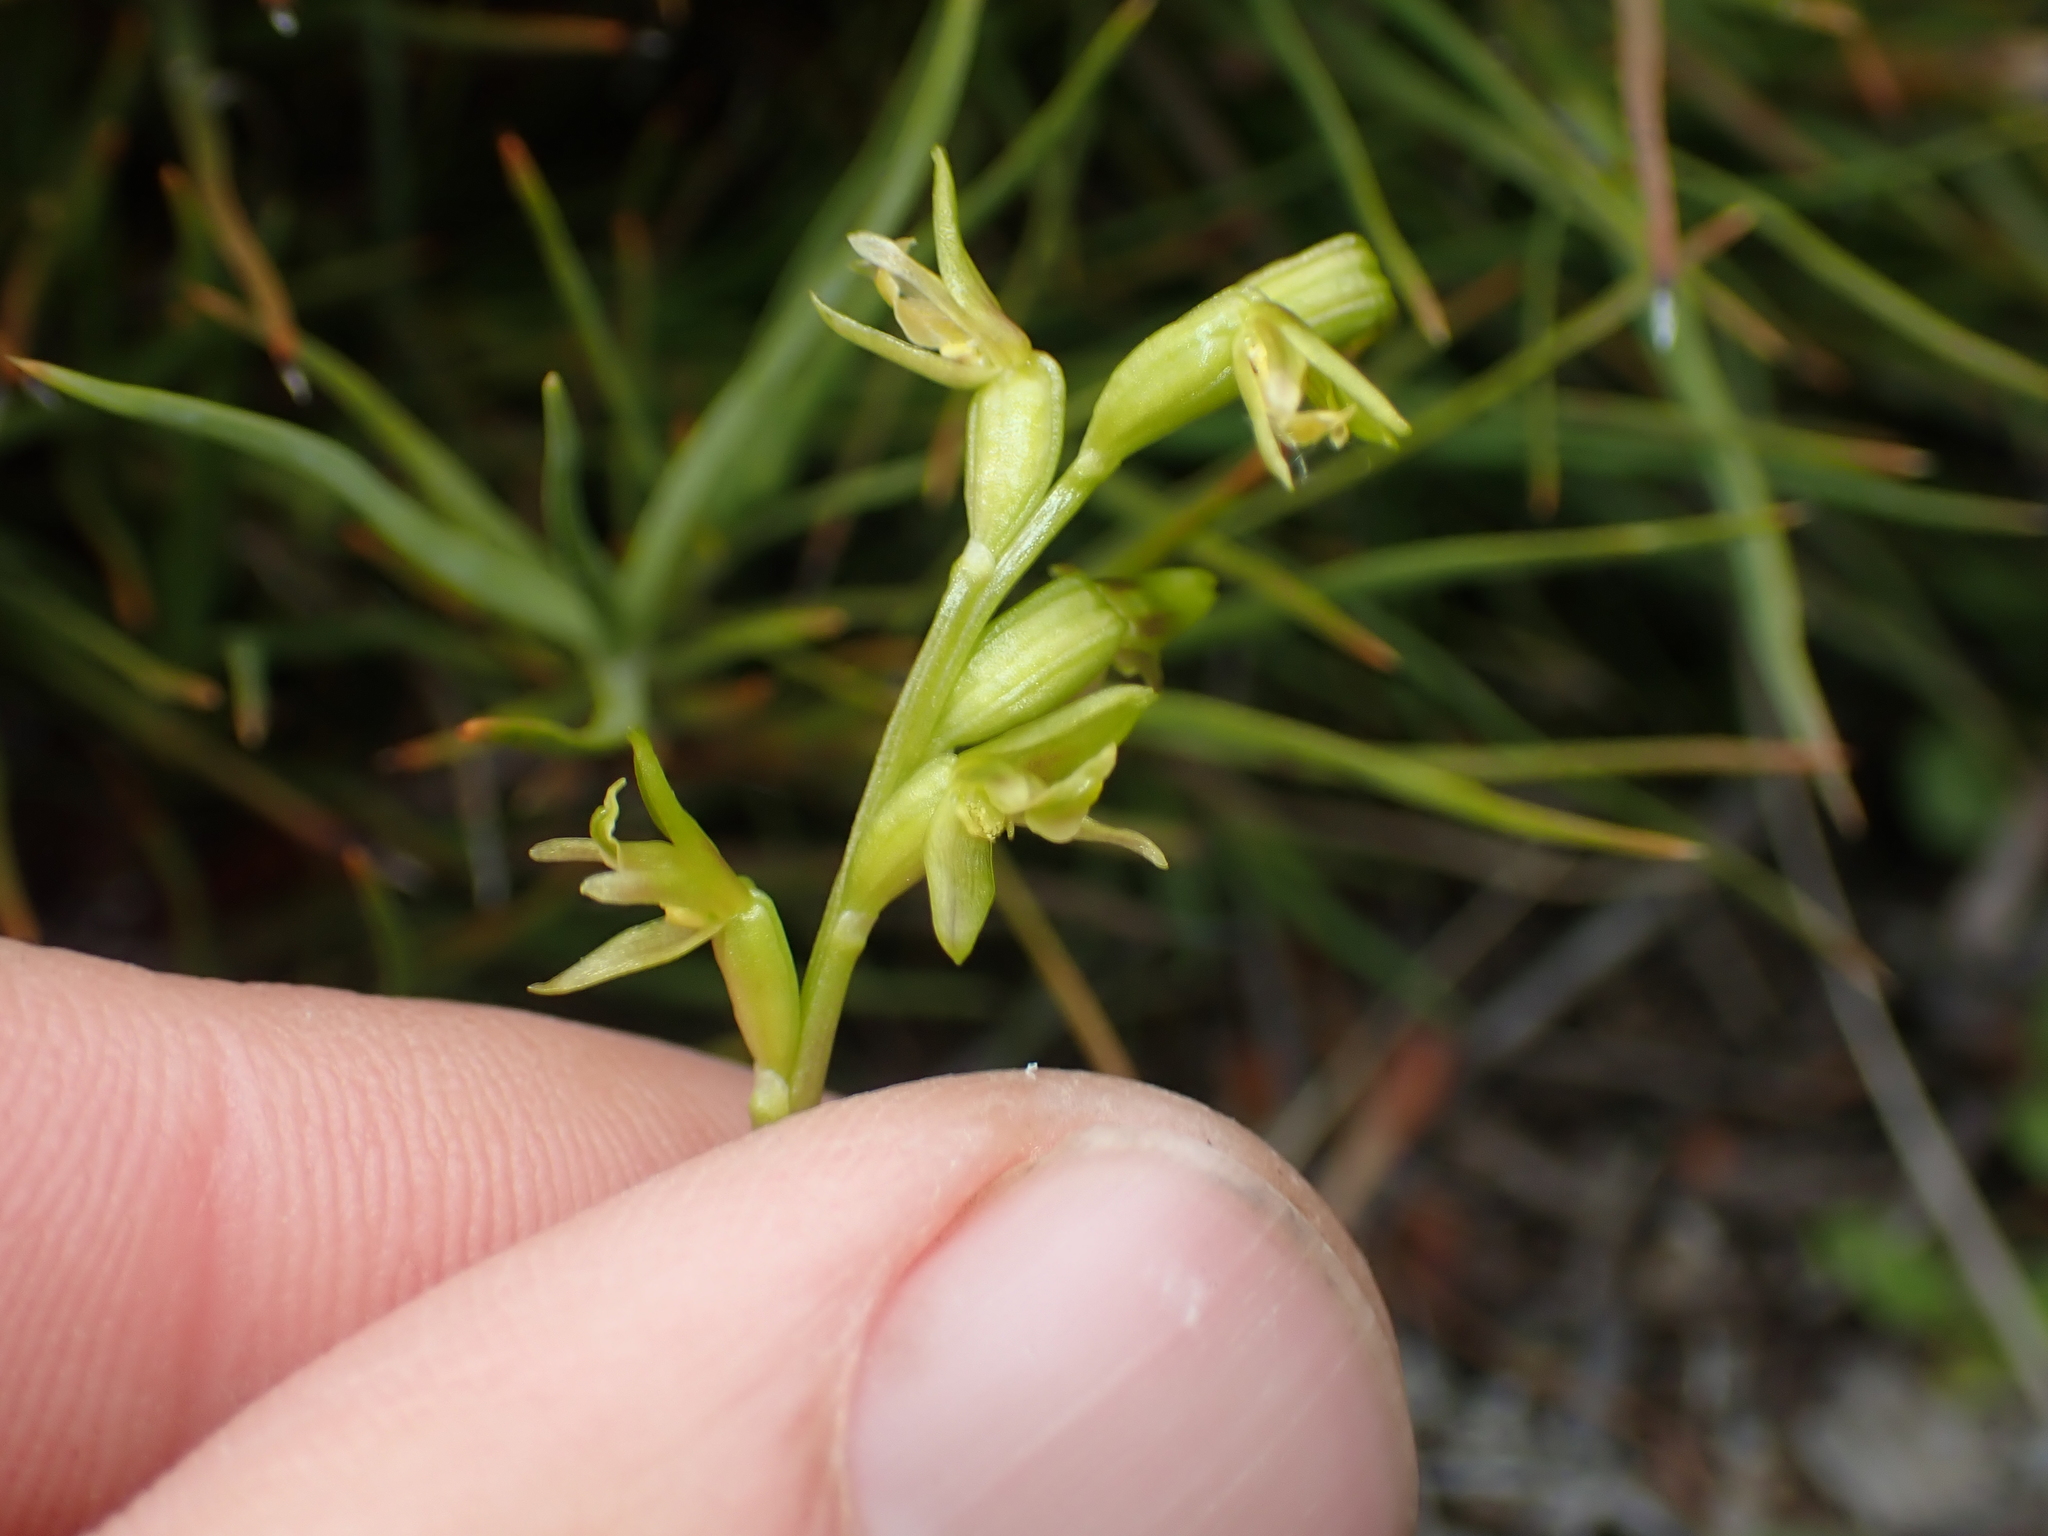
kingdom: Plantae
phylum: Tracheophyta
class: Liliopsida
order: Asparagales
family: Orchidaceae
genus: Prasophyllum
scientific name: Prasophyllum colensoi
